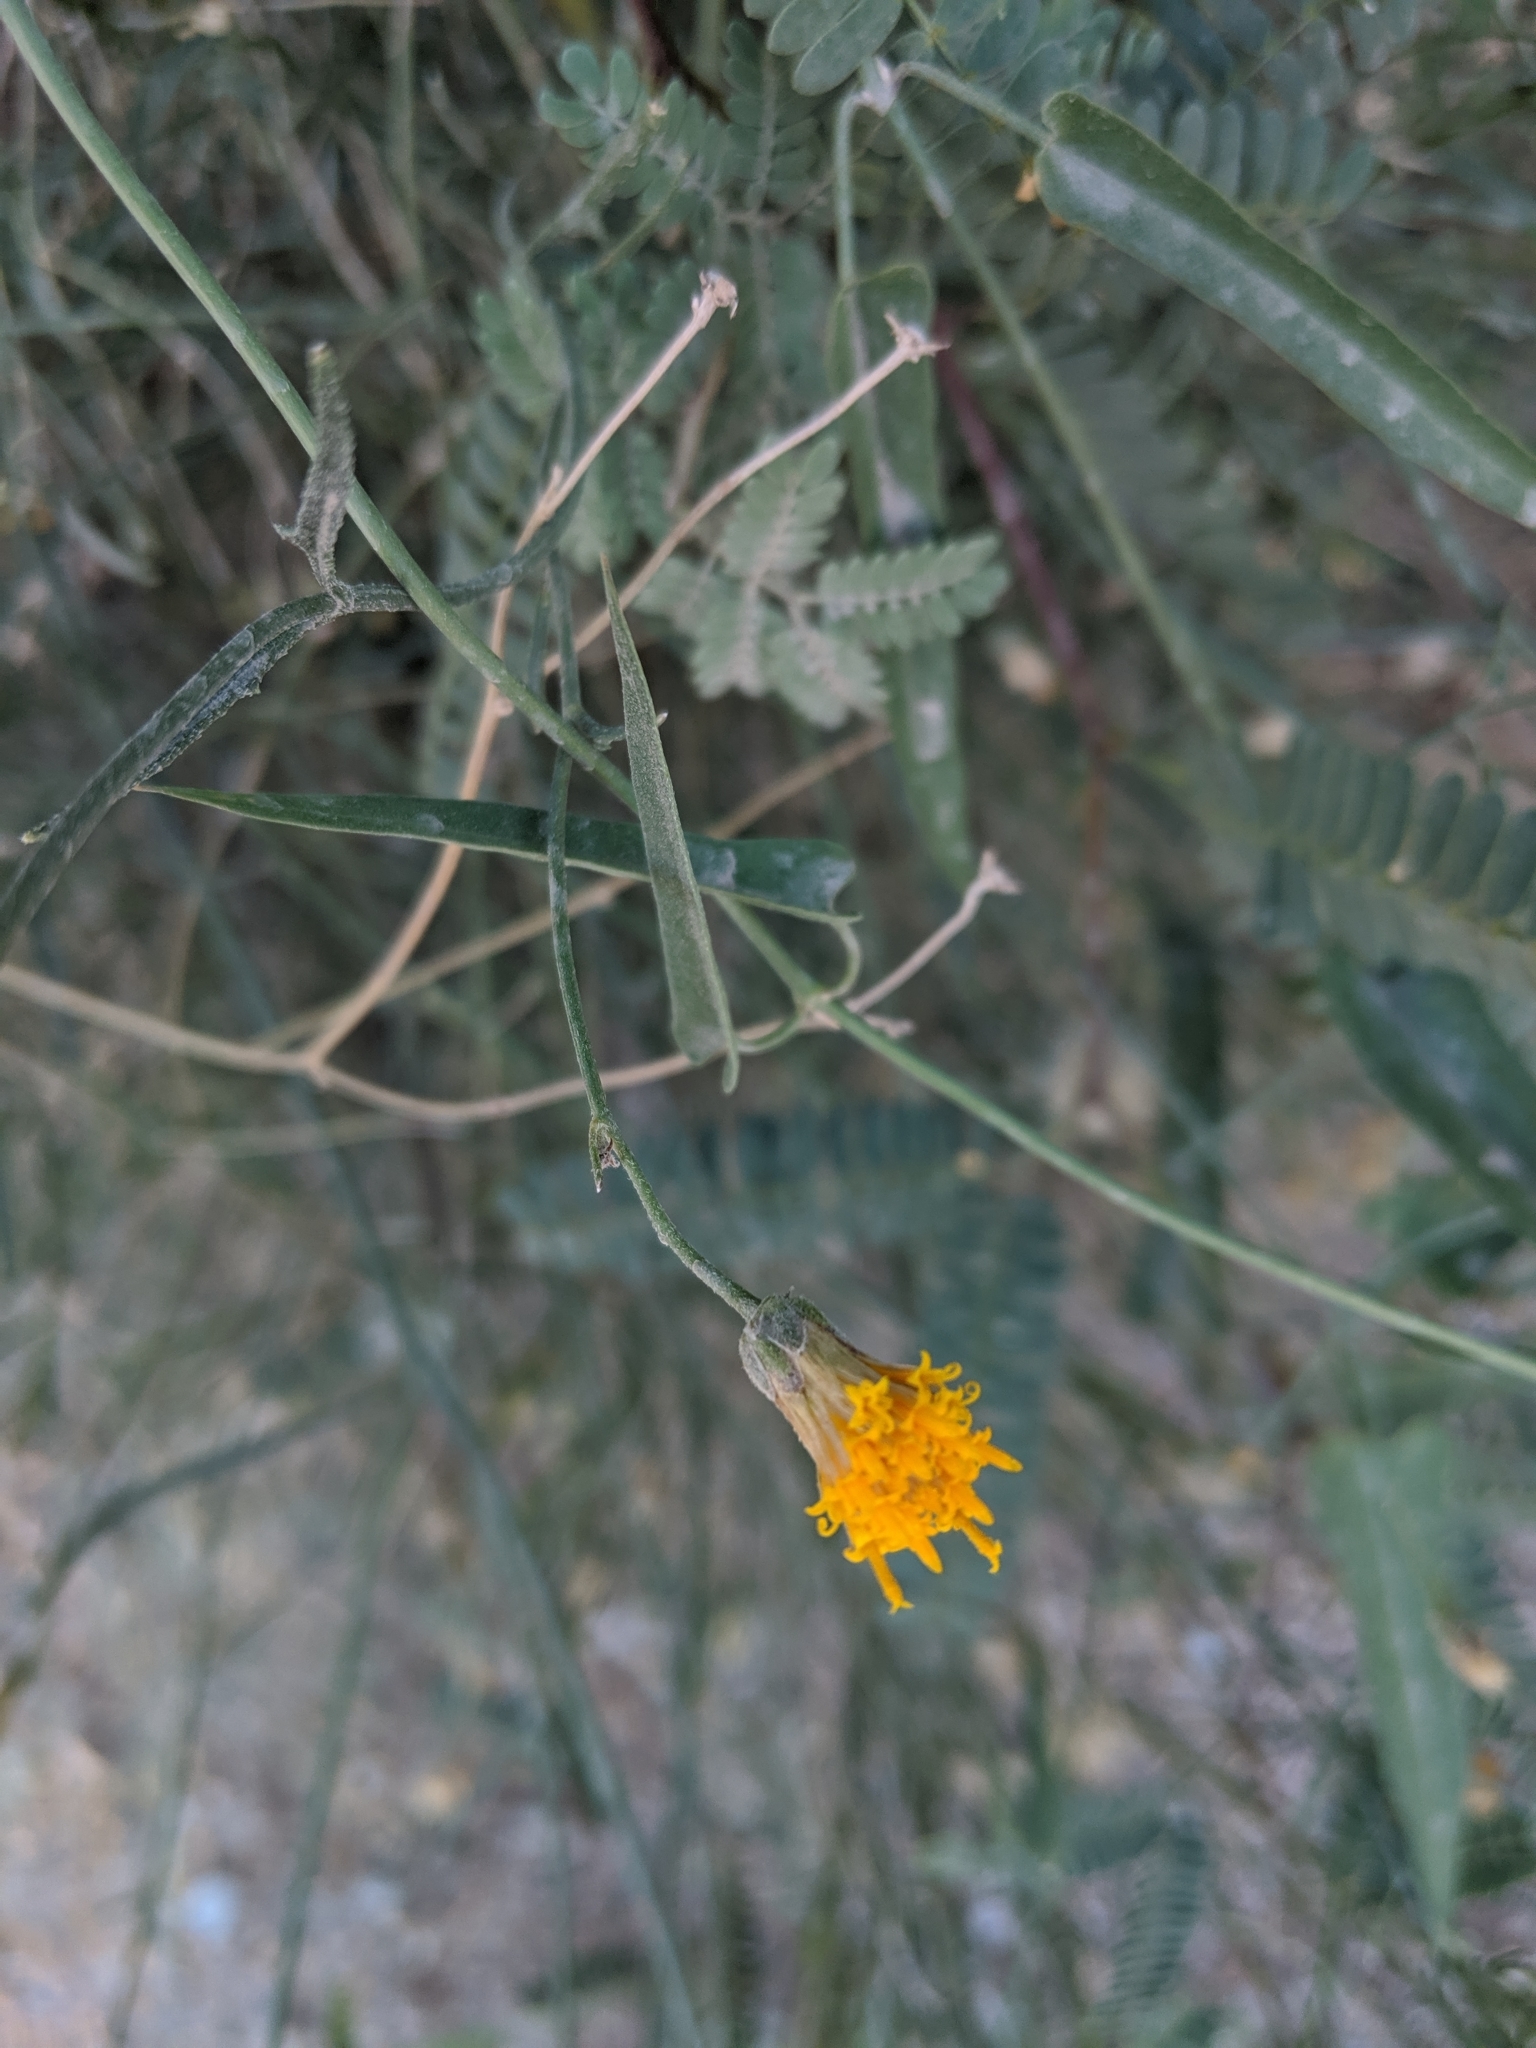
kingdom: Plantae
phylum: Tracheophyta
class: Magnoliopsida
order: Asterales
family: Asteraceae
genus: Bebbia
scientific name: Bebbia juncea
